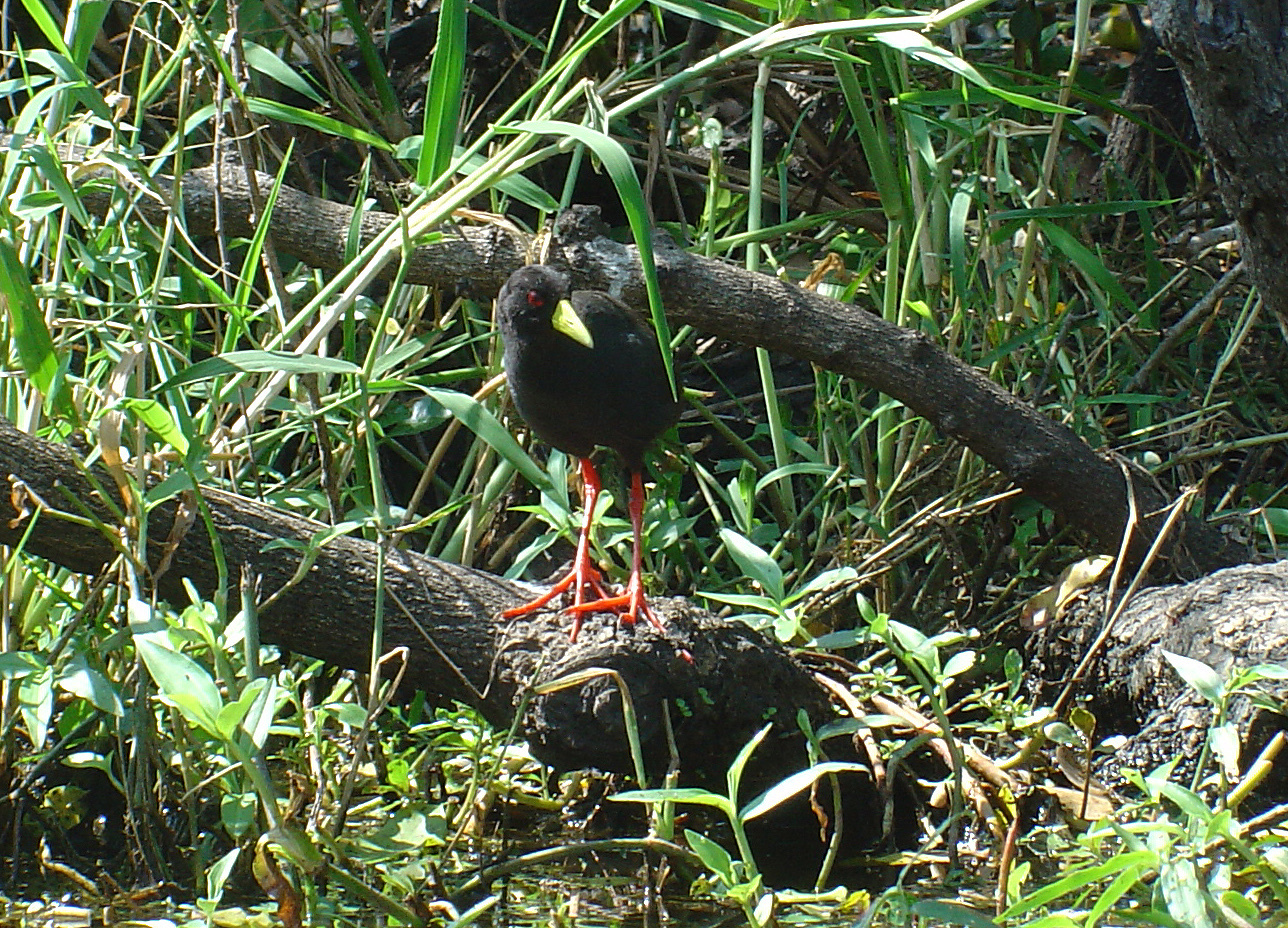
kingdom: Animalia
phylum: Chordata
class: Aves
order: Gruiformes
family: Rallidae
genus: Amaurornis
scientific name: Amaurornis flavirostra
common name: Black crake
